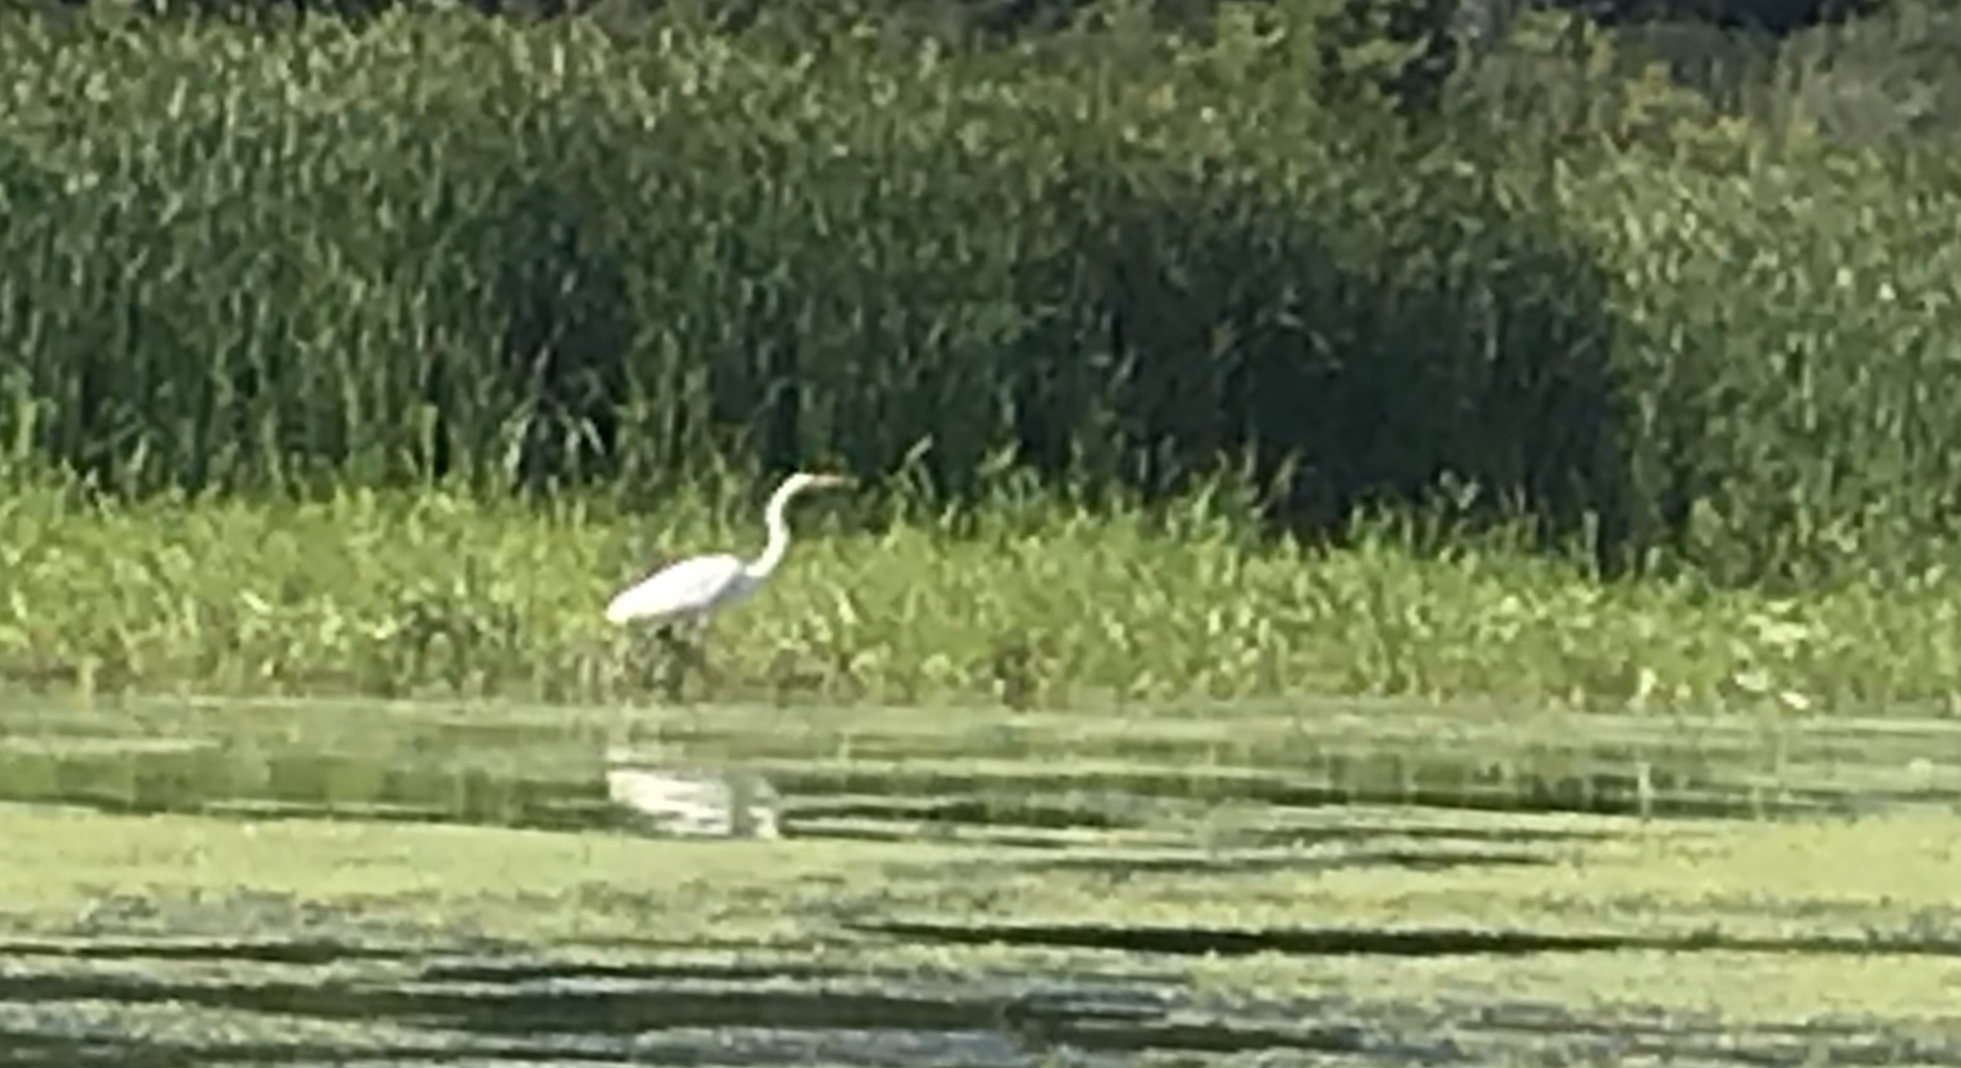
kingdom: Animalia
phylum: Chordata
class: Aves
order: Pelecaniformes
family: Ardeidae
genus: Ardea
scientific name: Ardea alba
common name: Great egret
